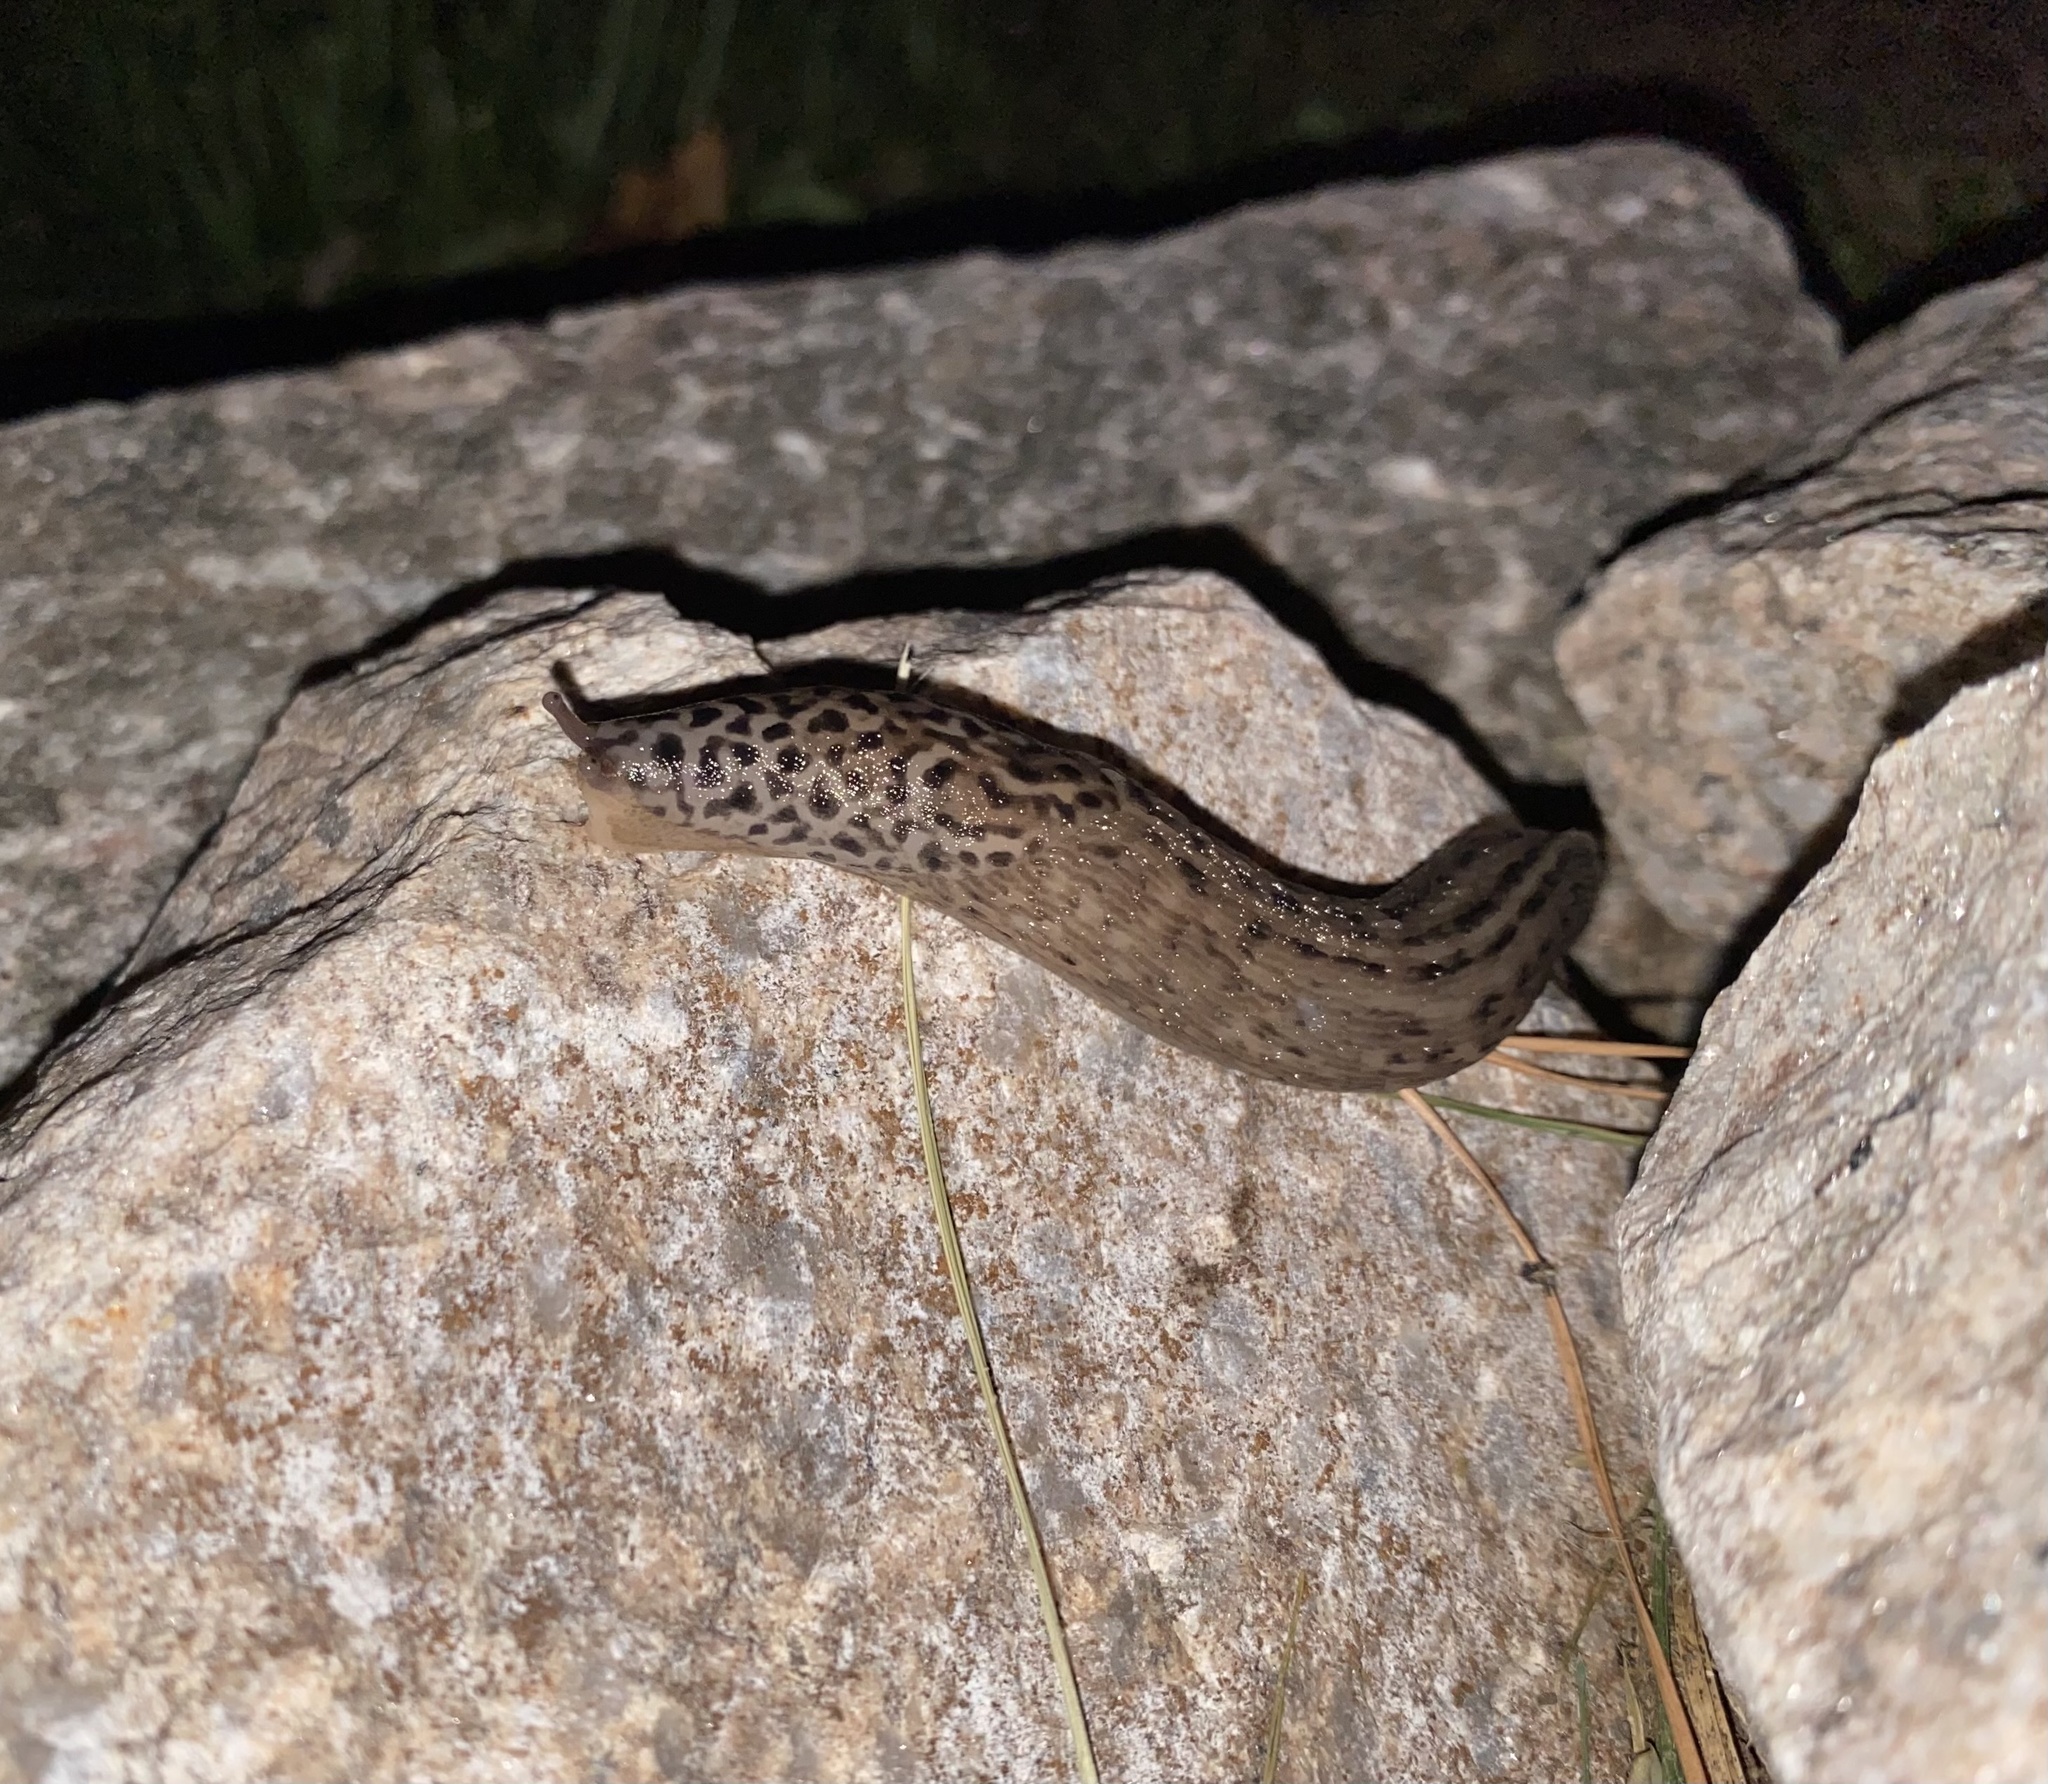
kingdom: Animalia
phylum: Mollusca
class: Gastropoda
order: Stylommatophora
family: Limacidae
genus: Limax
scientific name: Limax maximus
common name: Great grey slug
